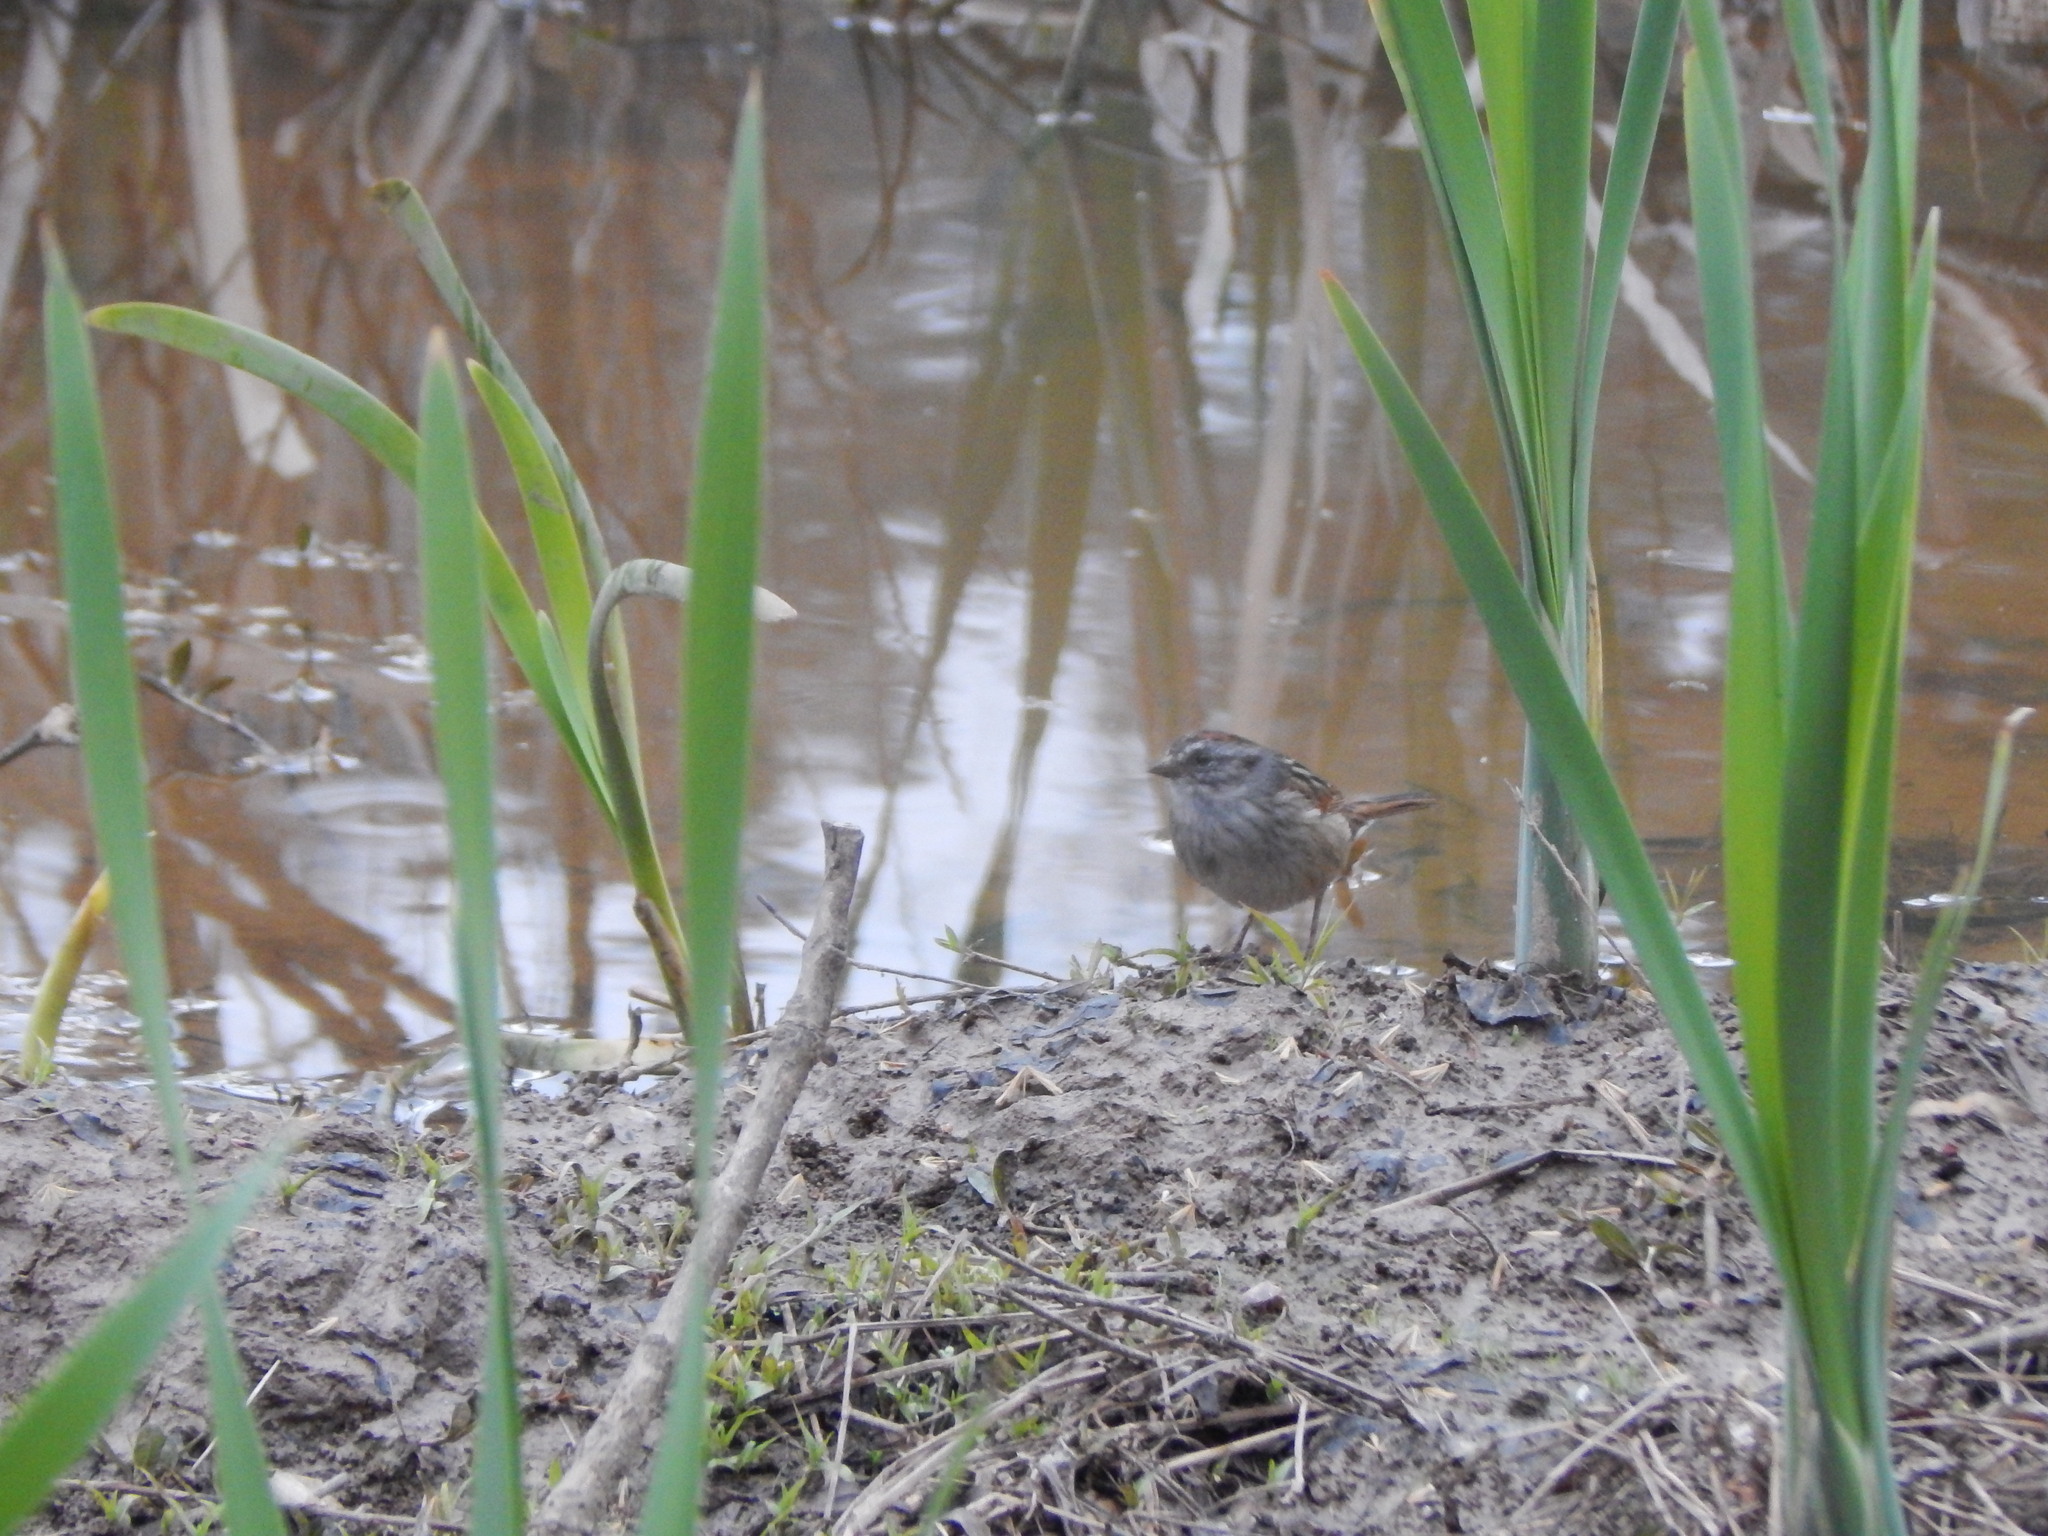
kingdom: Animalia
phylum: Chordata
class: Aves
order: Passeriformes
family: Passerellidae
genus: Melospiza
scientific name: Melospiza georgiana
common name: Swamp sparrow
